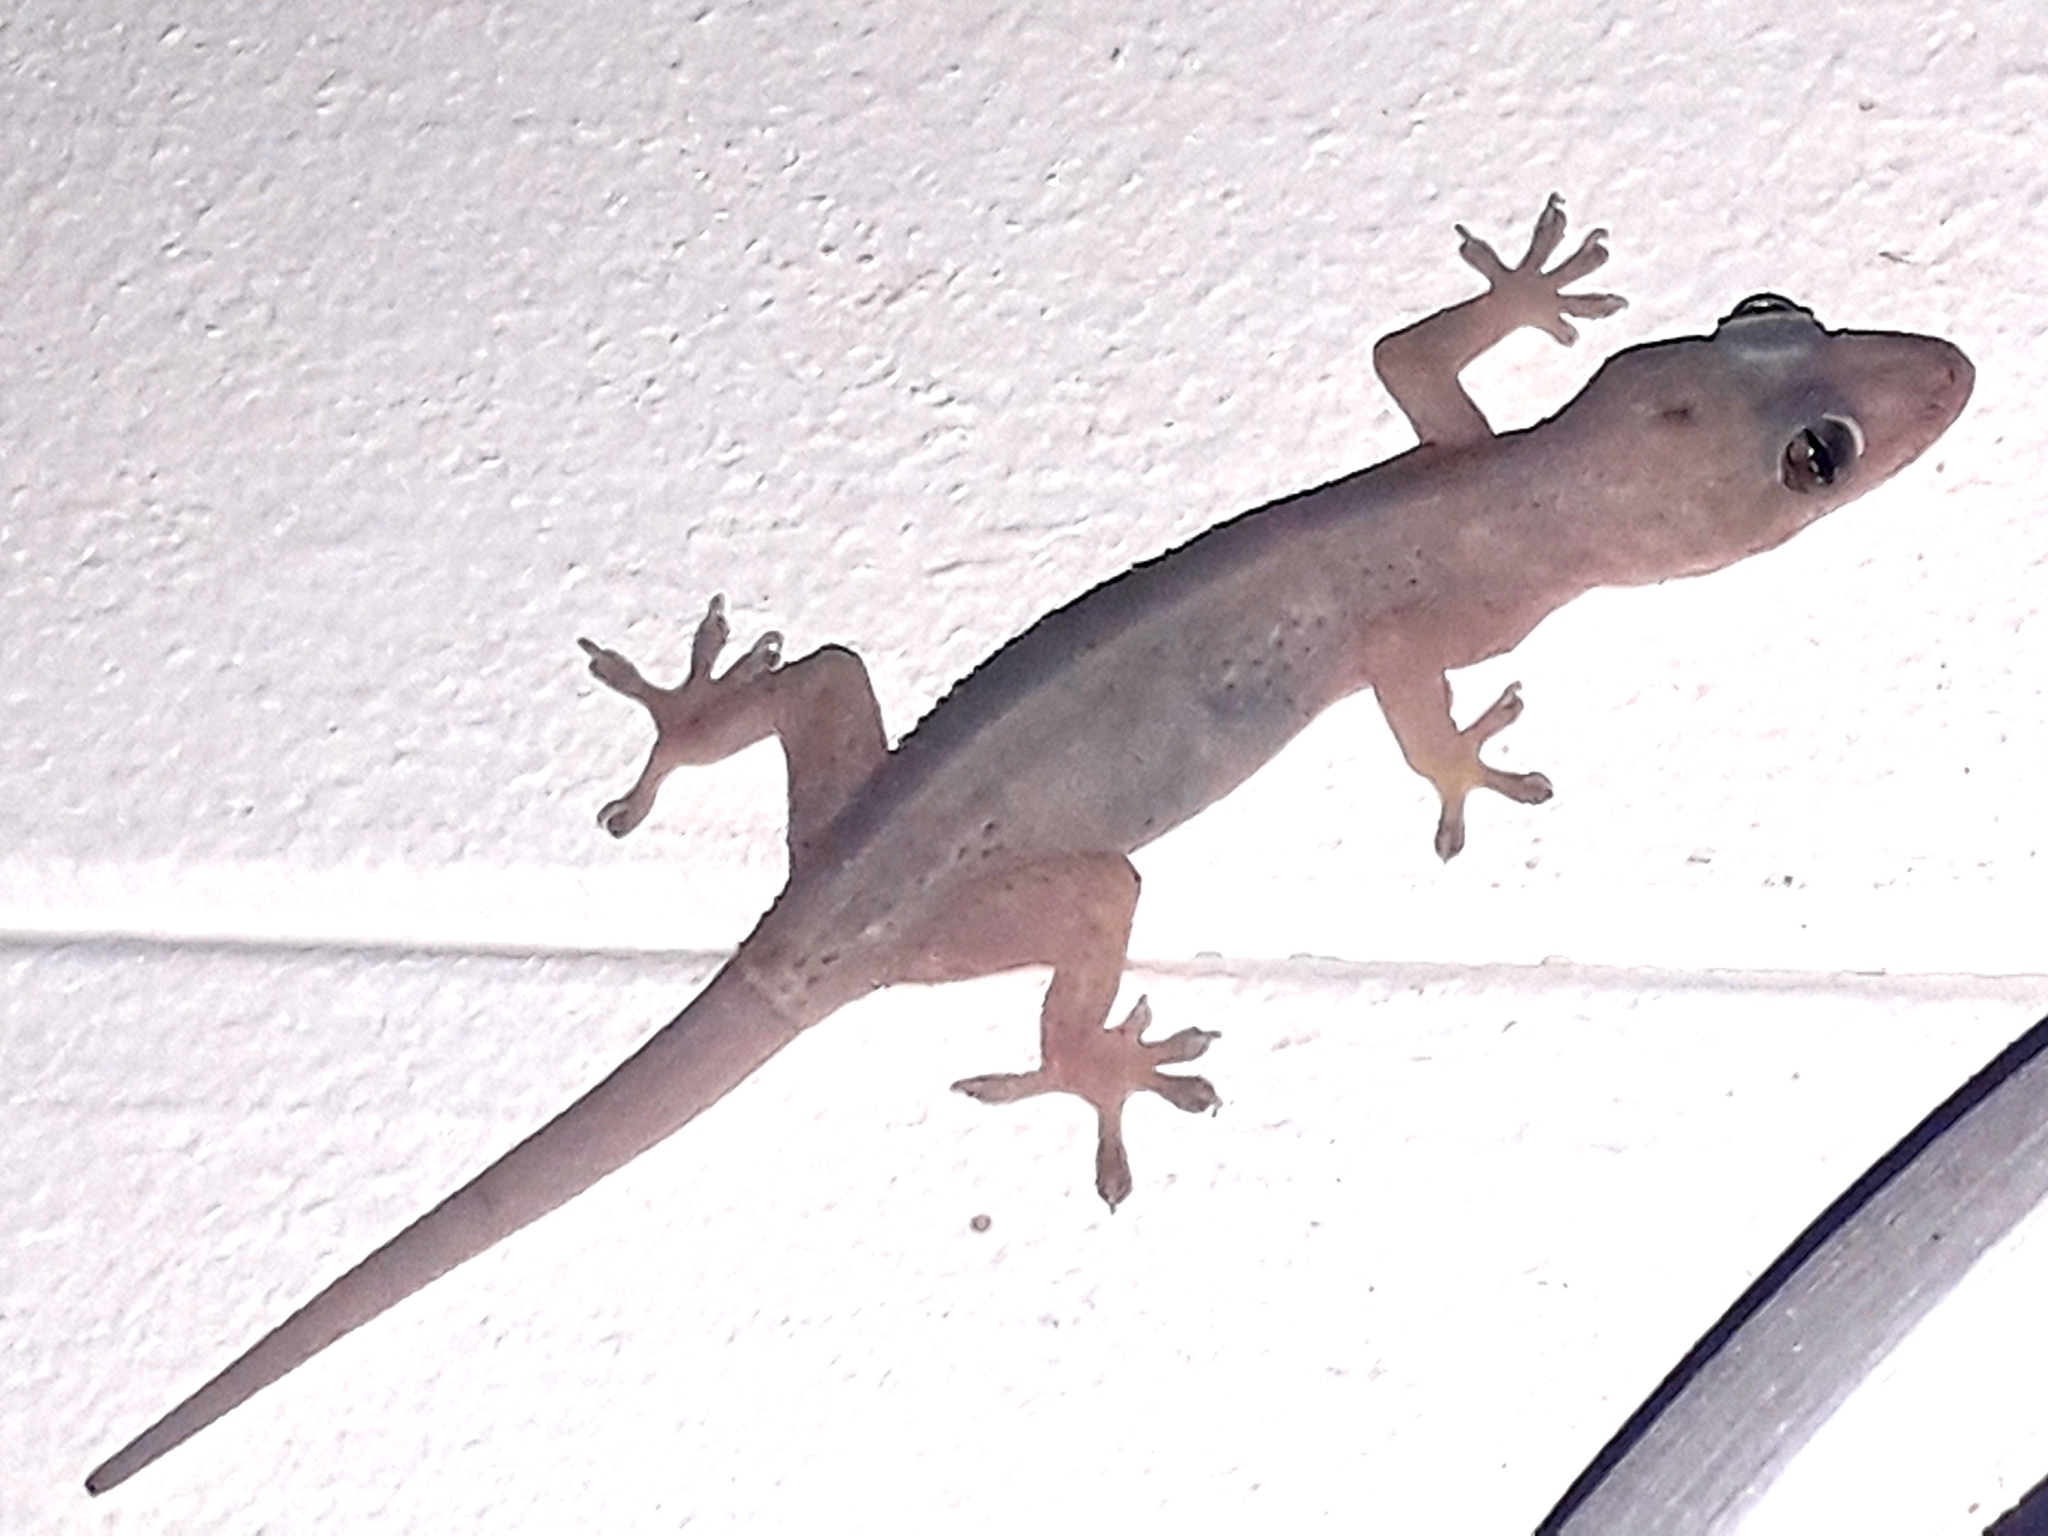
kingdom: Animalia
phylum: Chordata
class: Squamata
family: Gekkonidae
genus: Hemidactylus
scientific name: Hemidactylus mabouia
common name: House gecko
